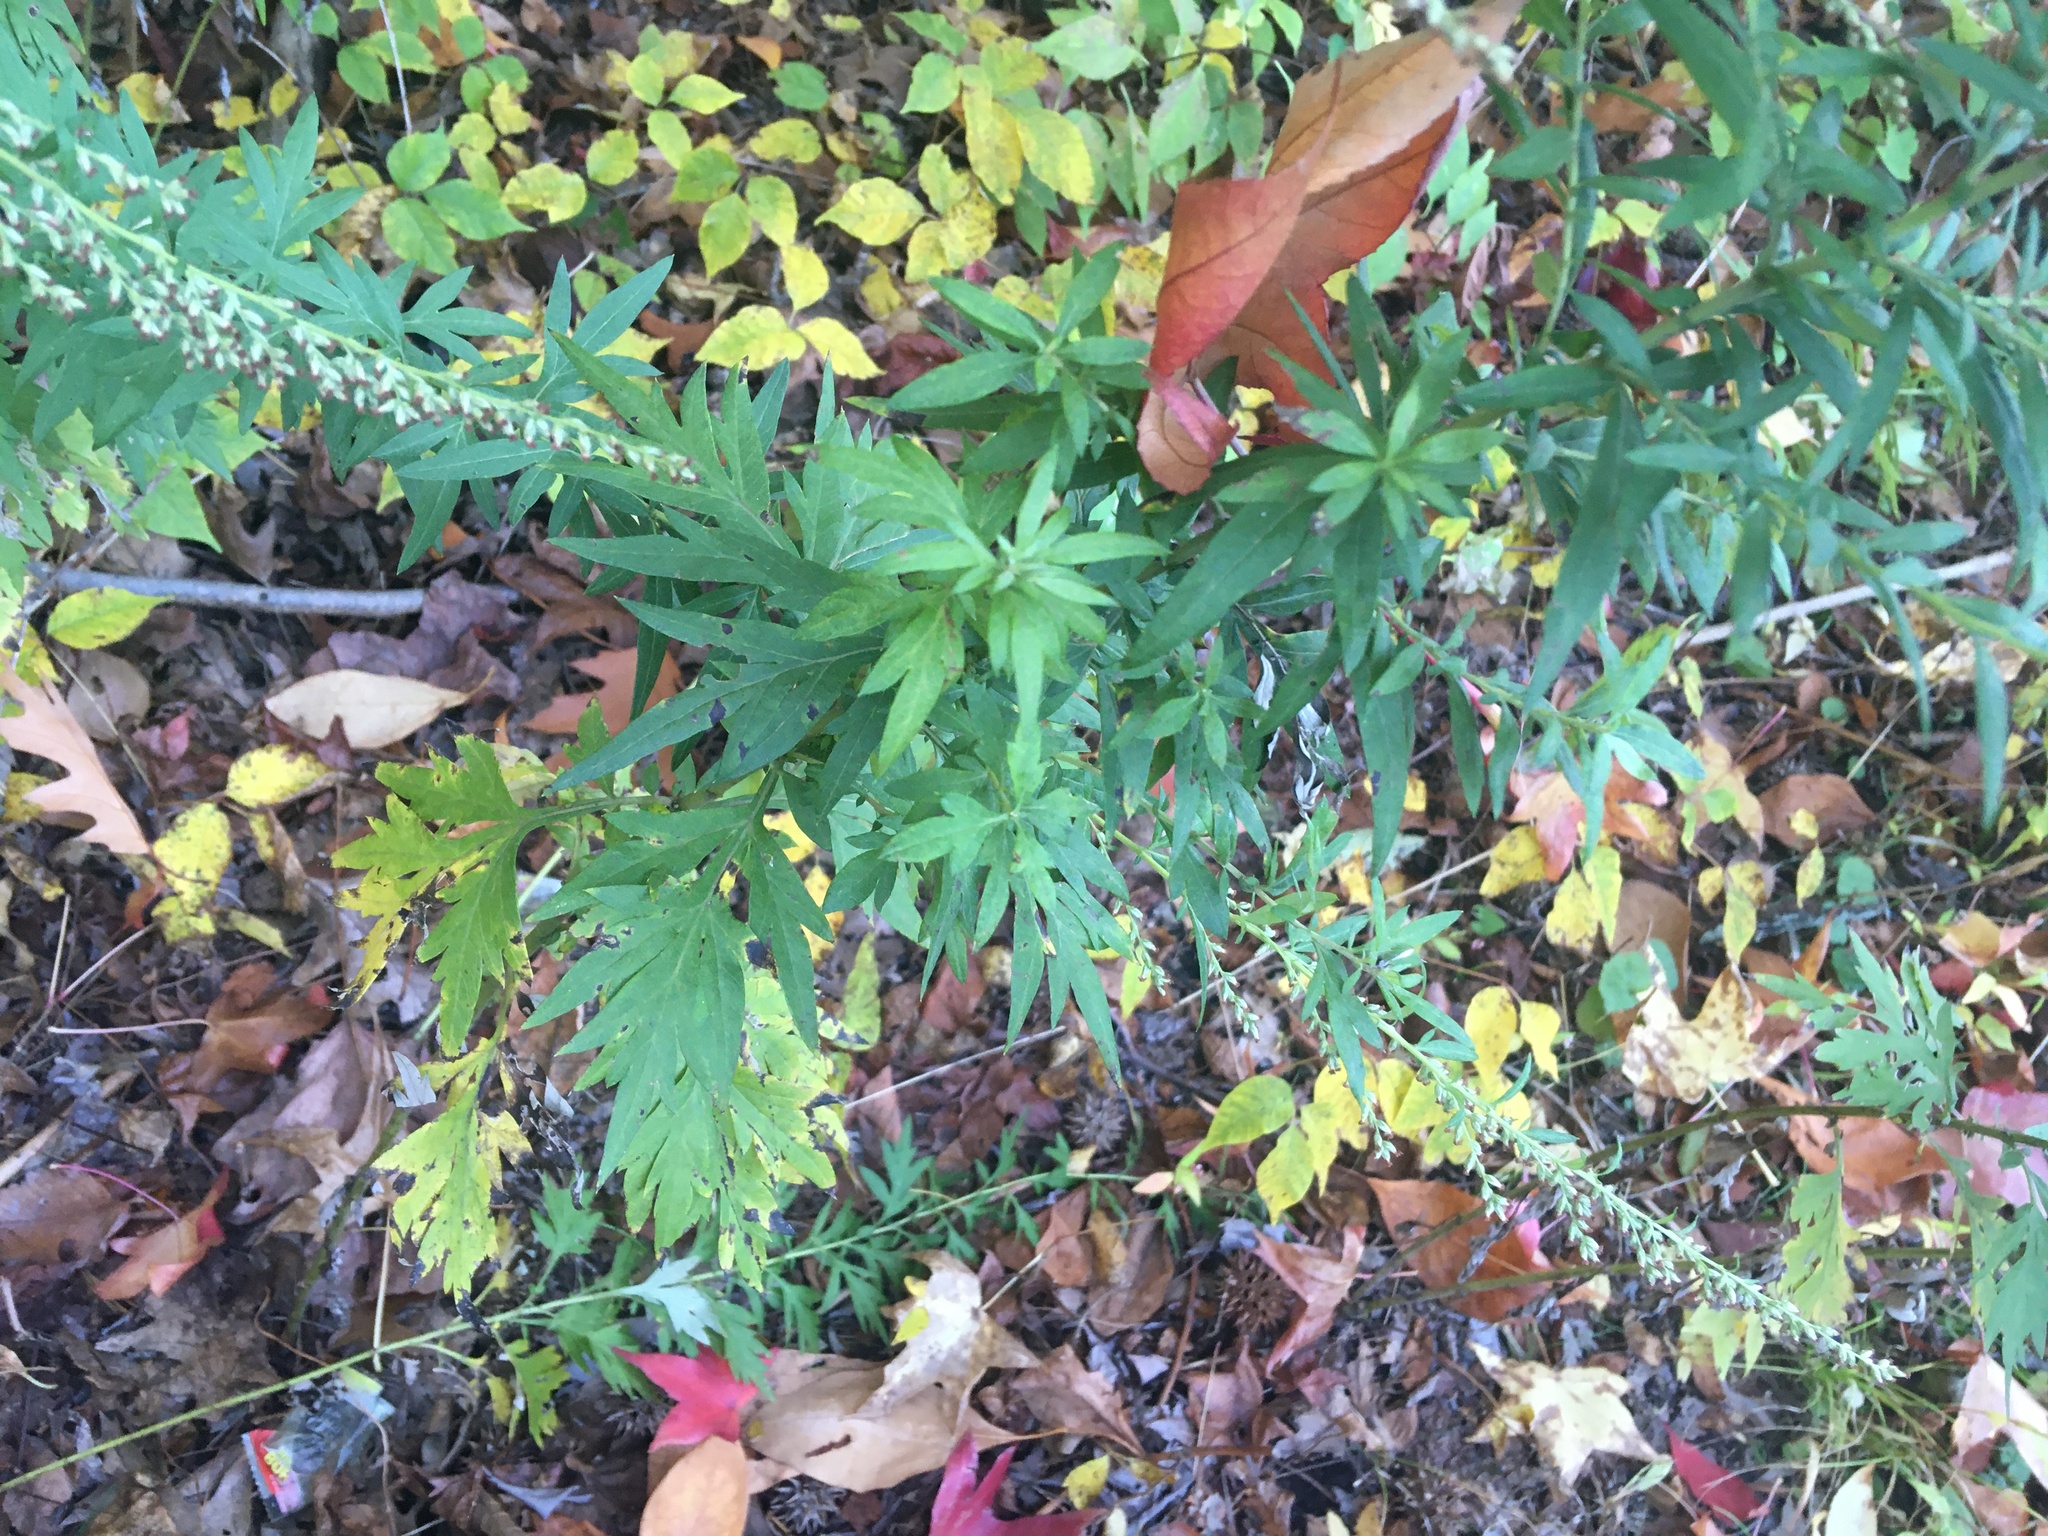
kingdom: Plantae
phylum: Tracheophyta
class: Magnoliopsida
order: Asterales
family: Asteraceae
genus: Artemisia
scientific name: Artemisia vulgaris
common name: Mugwort
